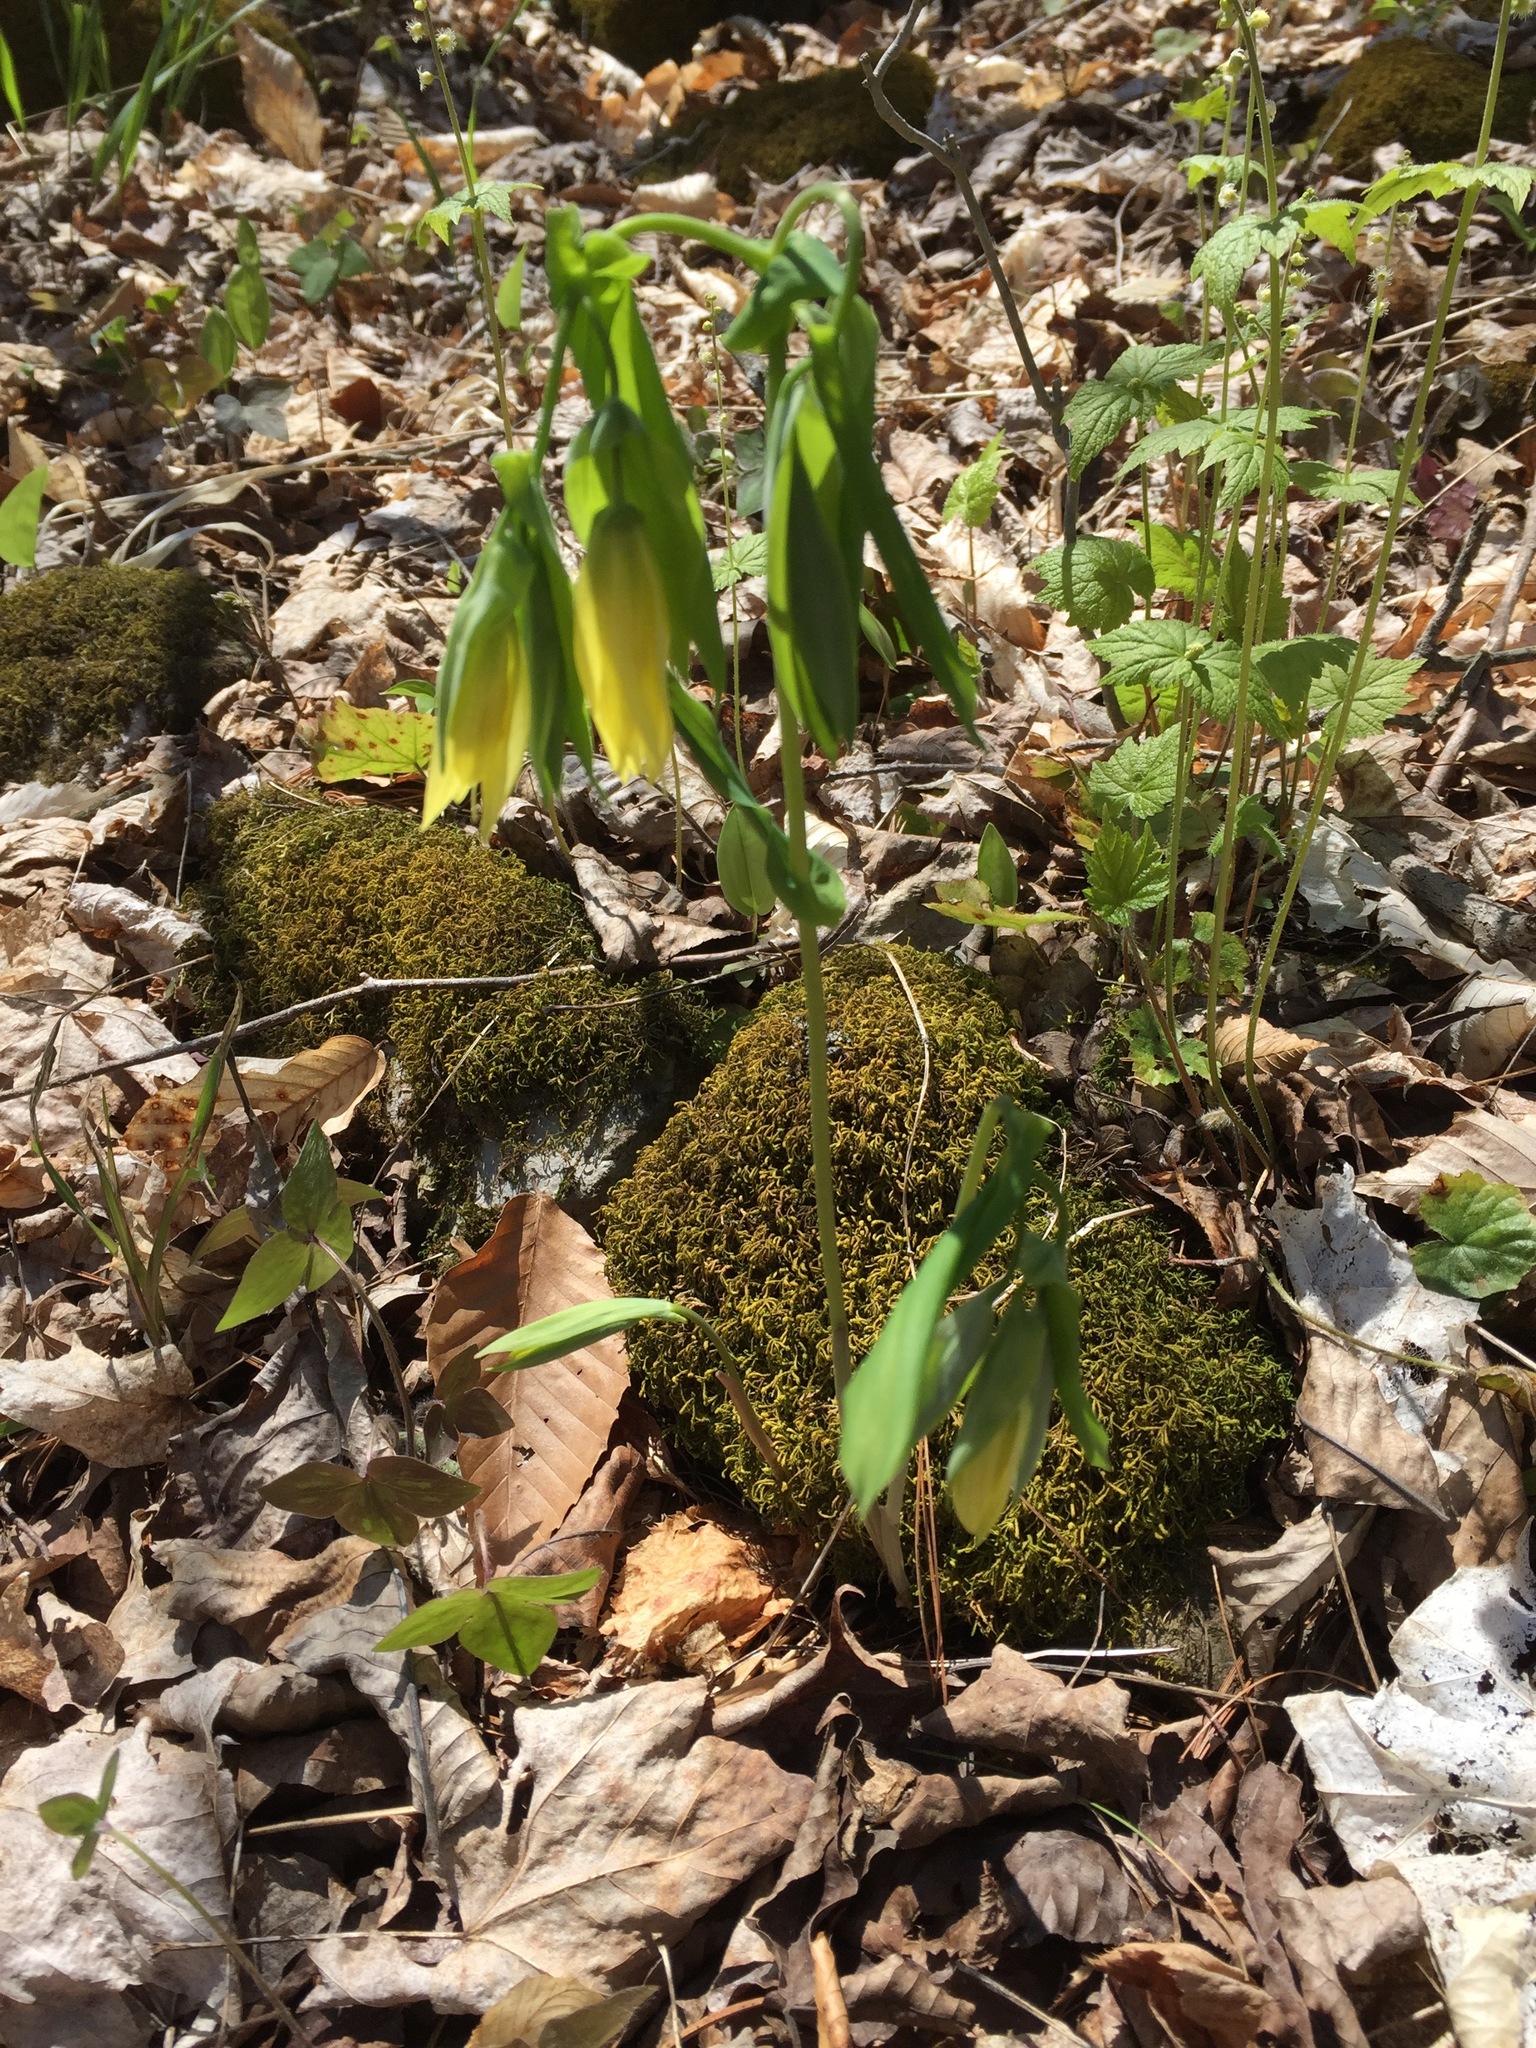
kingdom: Plantae
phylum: Tracheophyta
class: Liliopsida
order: Liliales
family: Colchicaceae
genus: Uvularia
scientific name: Uvularia grandiflora
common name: Bellwort
